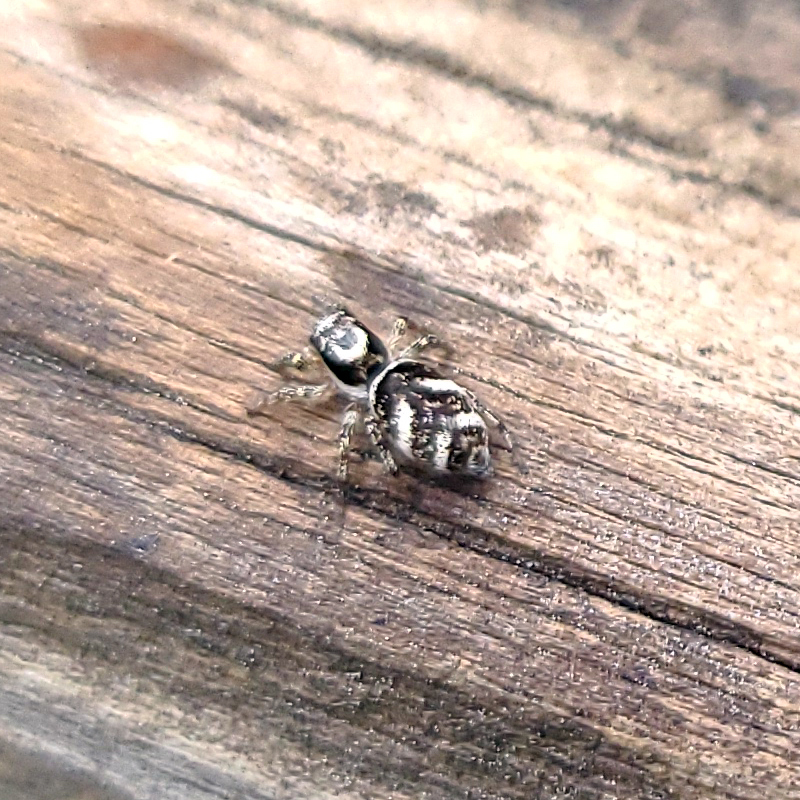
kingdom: Animalia
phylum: Arthropoda
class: Arachnida
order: Araneae
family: Salticidae
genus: Salticus
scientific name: Salticus scenicus
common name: Zebra jumper
